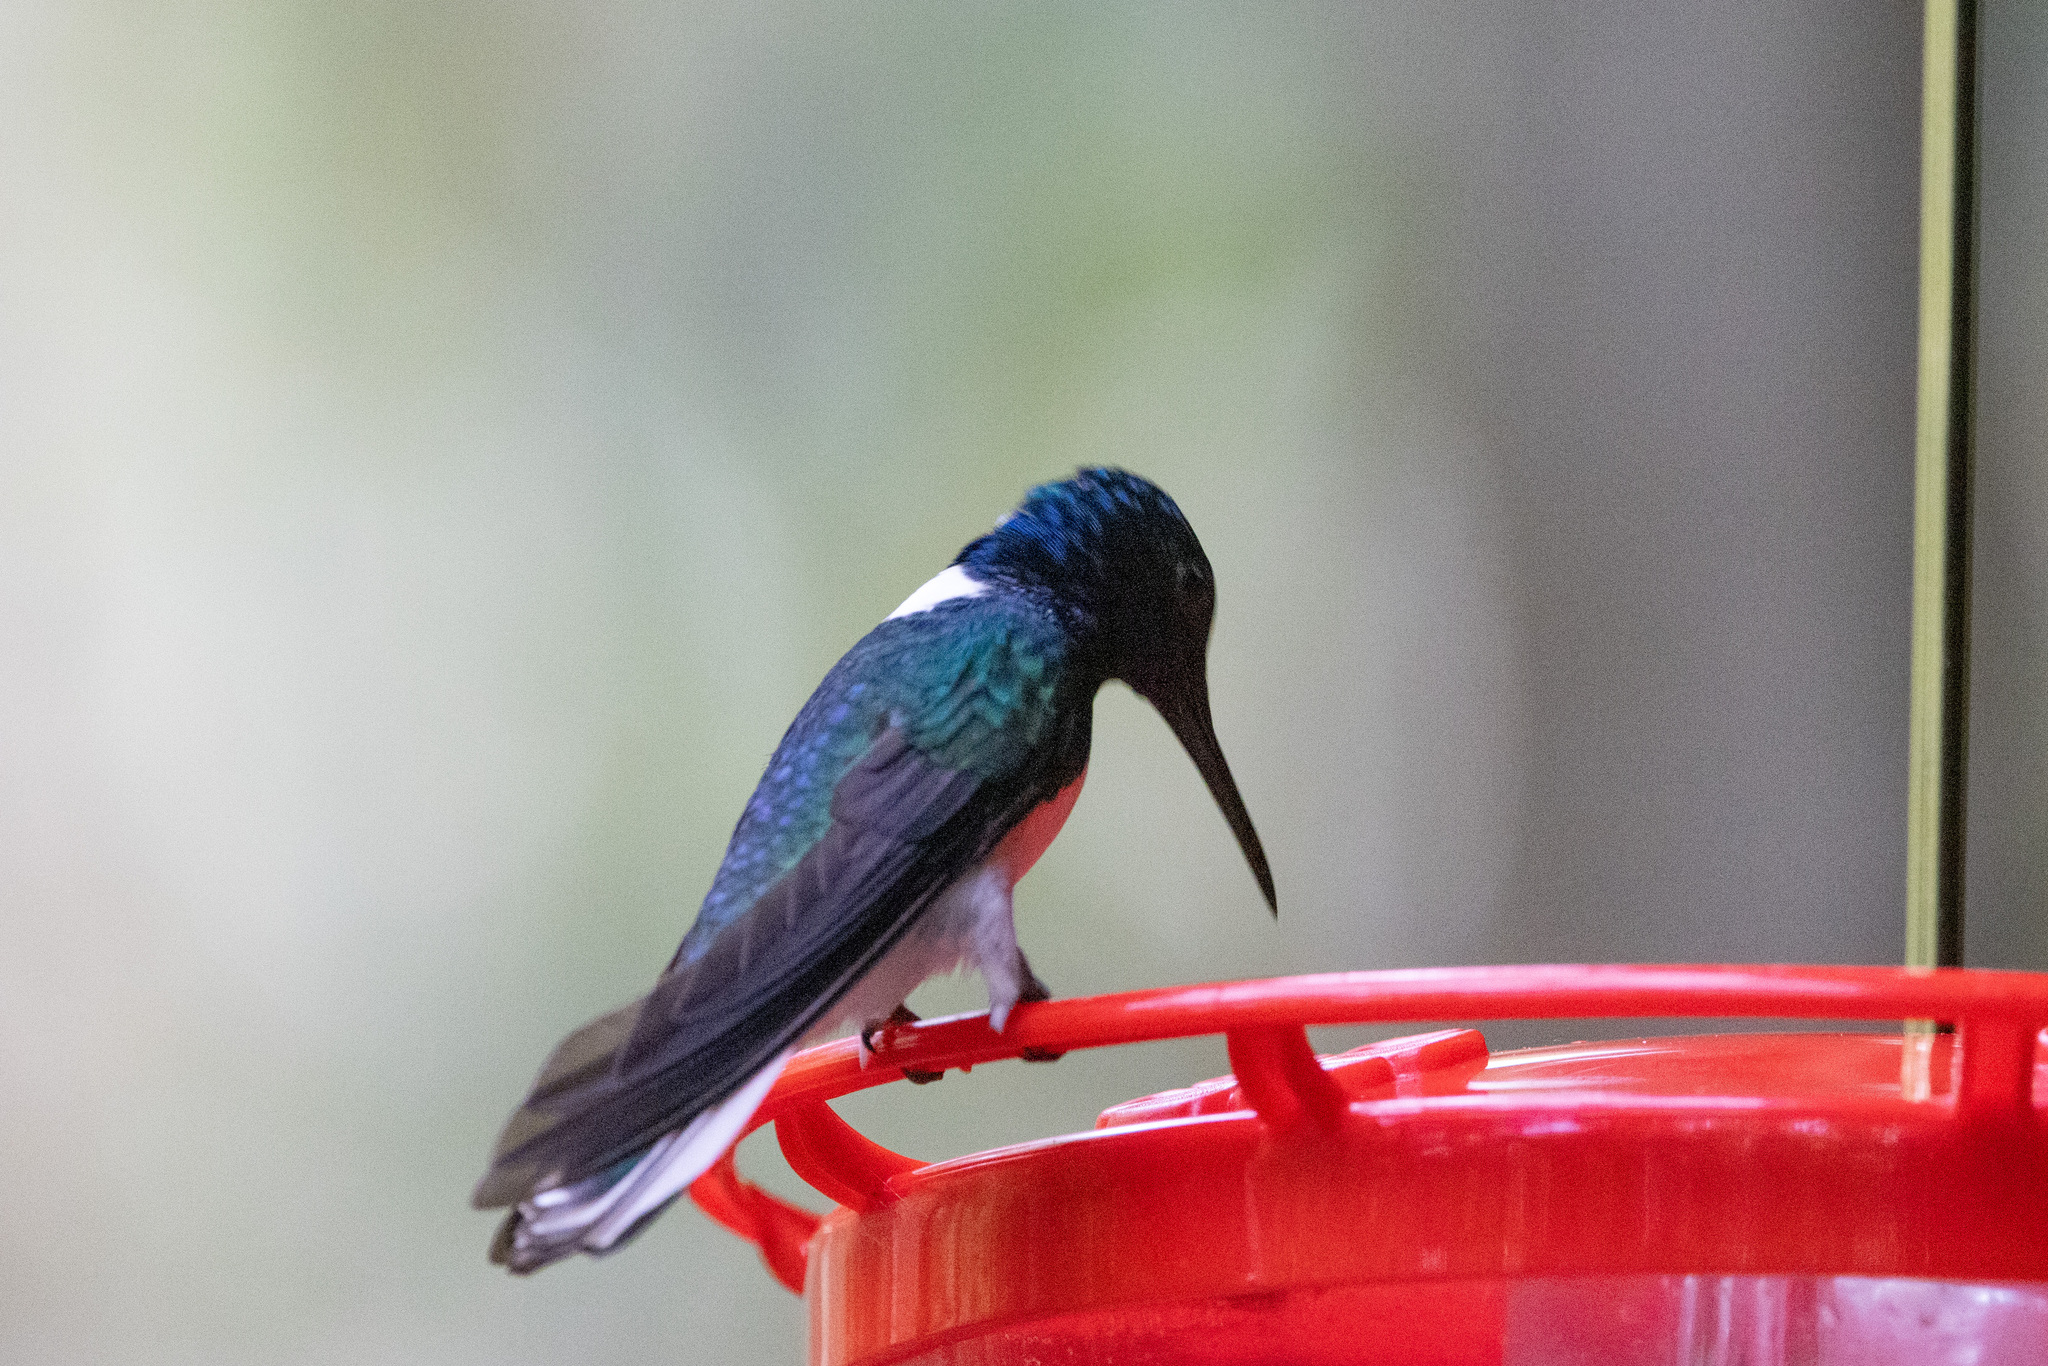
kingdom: Animalia
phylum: Chordata
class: Aves
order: Apodiformes
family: Trochilidae
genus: Florisuga
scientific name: Florisuga mellivora
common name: White-necked jacobin
